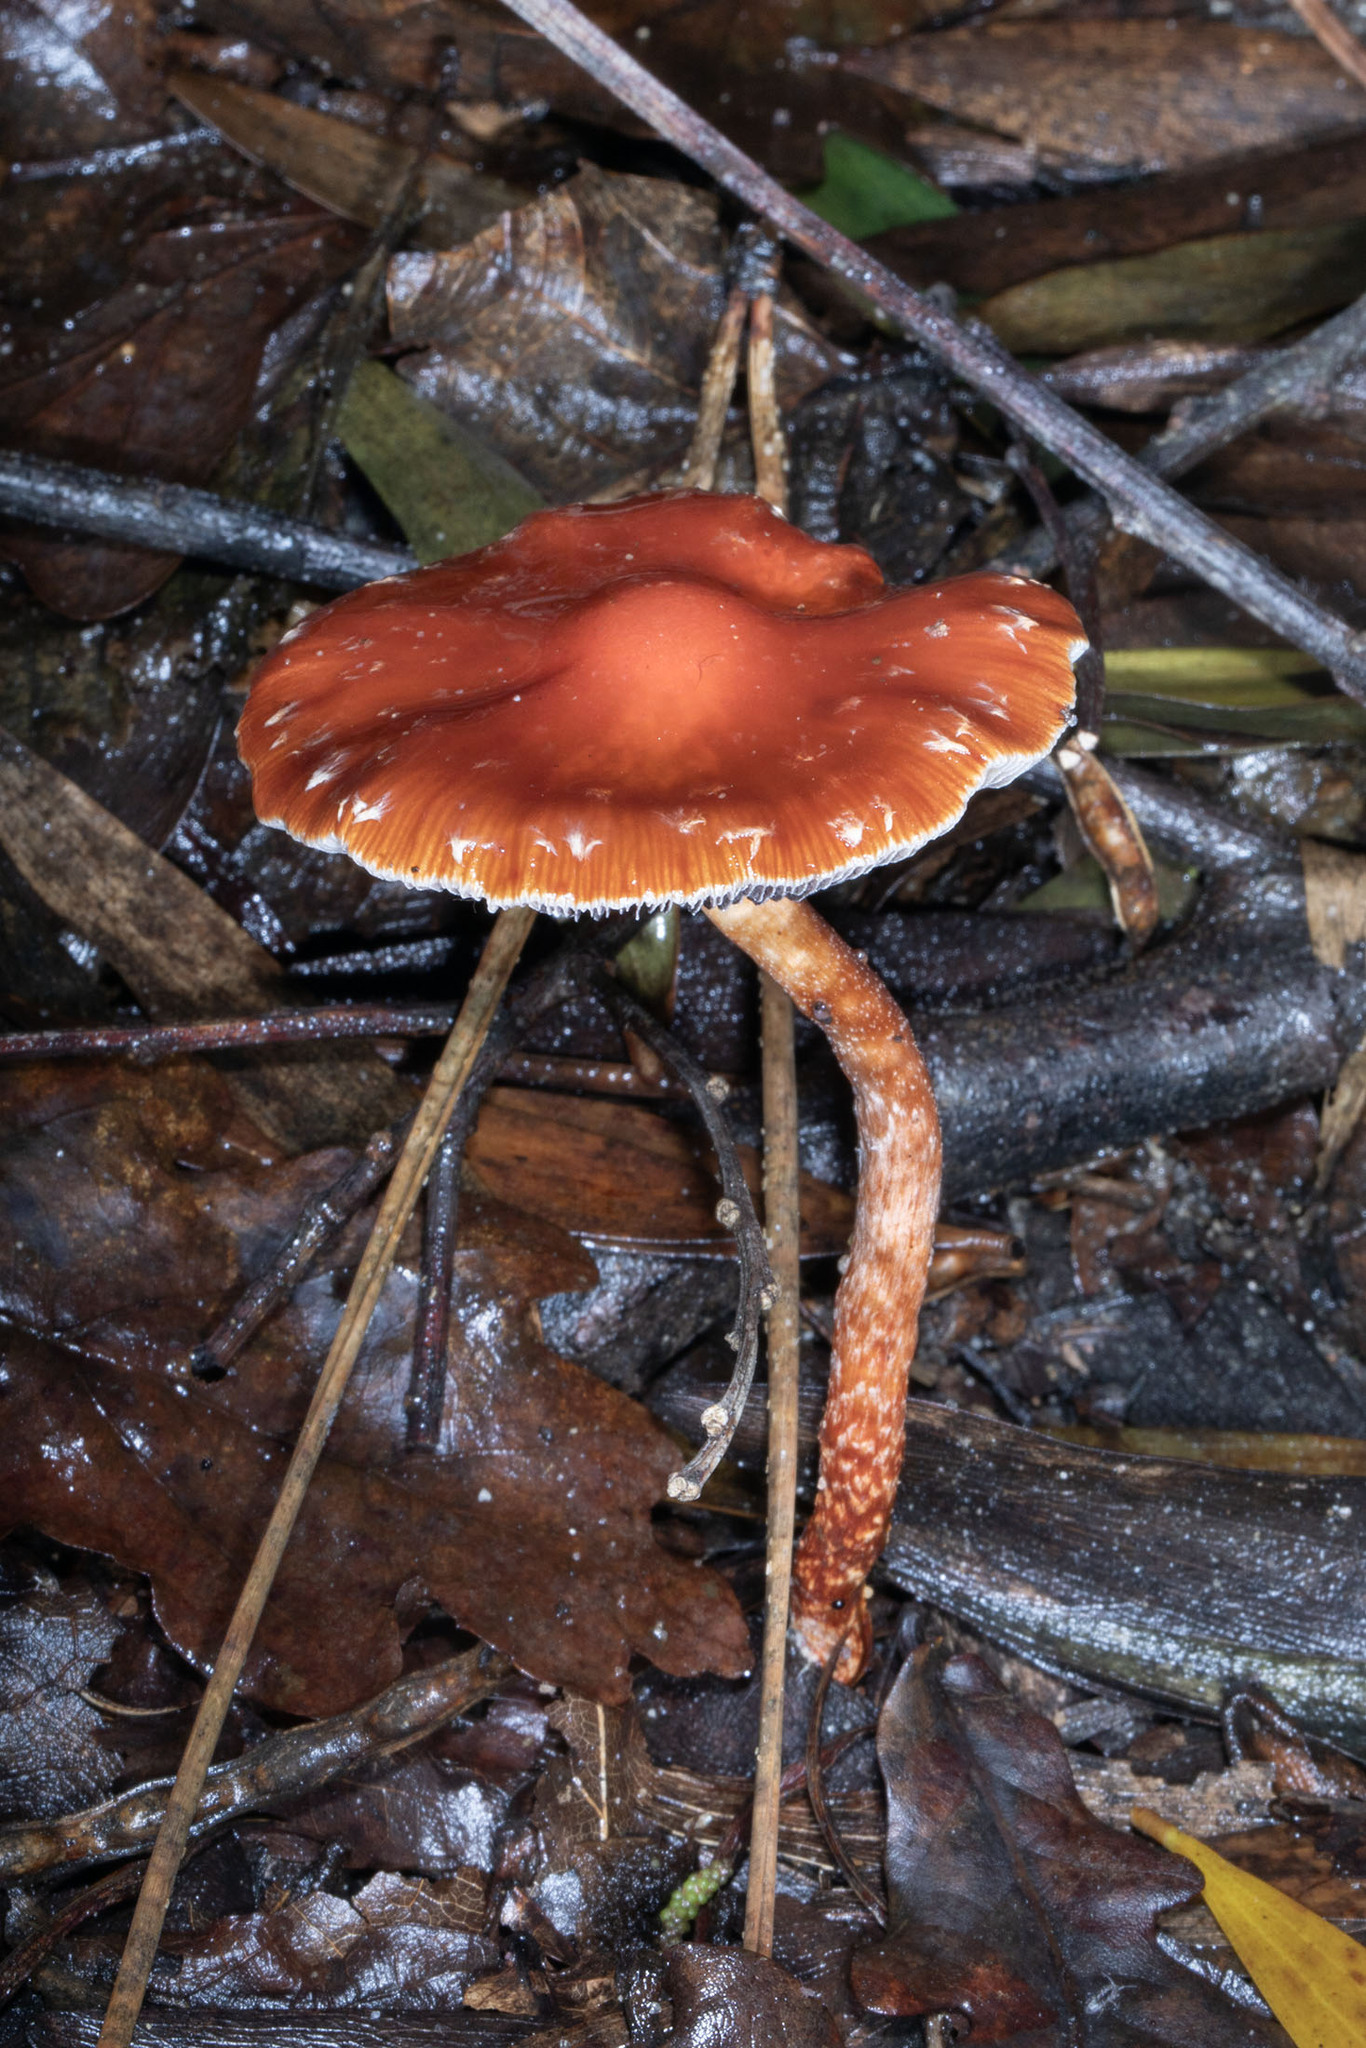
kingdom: Fungi
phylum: Basidiomycota
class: Agaricomycetes
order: Agaricales
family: Strophariaceae
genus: Leratiomyces
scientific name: Leratiomyces ceres
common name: Redlead roundhead
